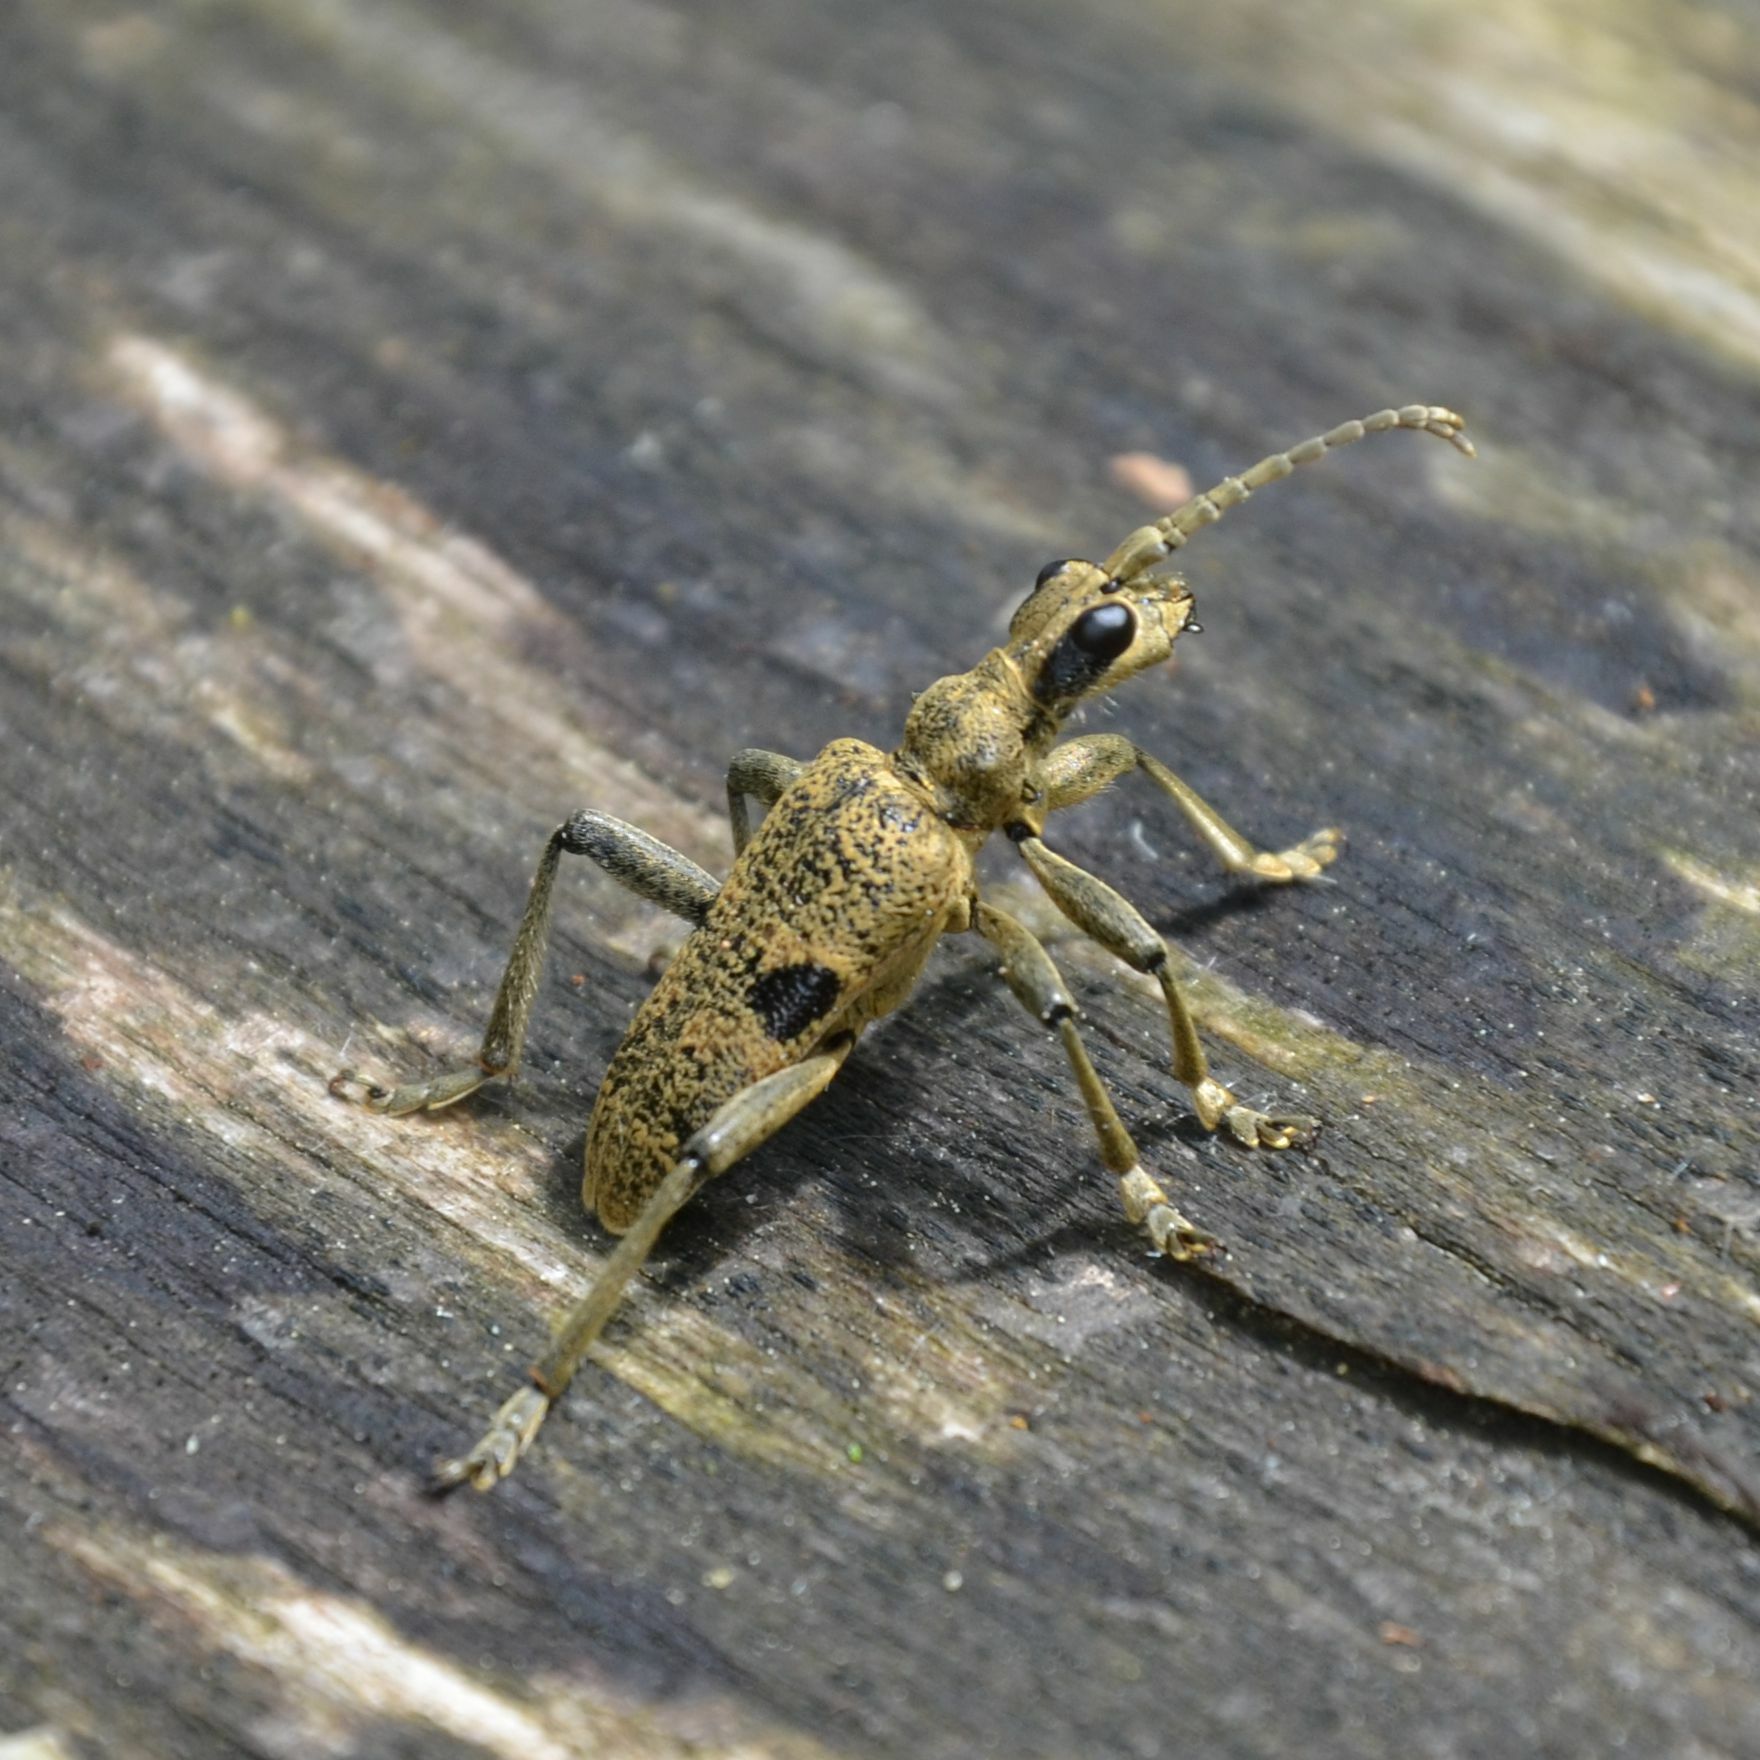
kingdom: Animalia
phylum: Arthropoda
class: Insecta
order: Coleoptera
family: Cerambycidae
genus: Rhagium
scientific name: Rhagium mordax
